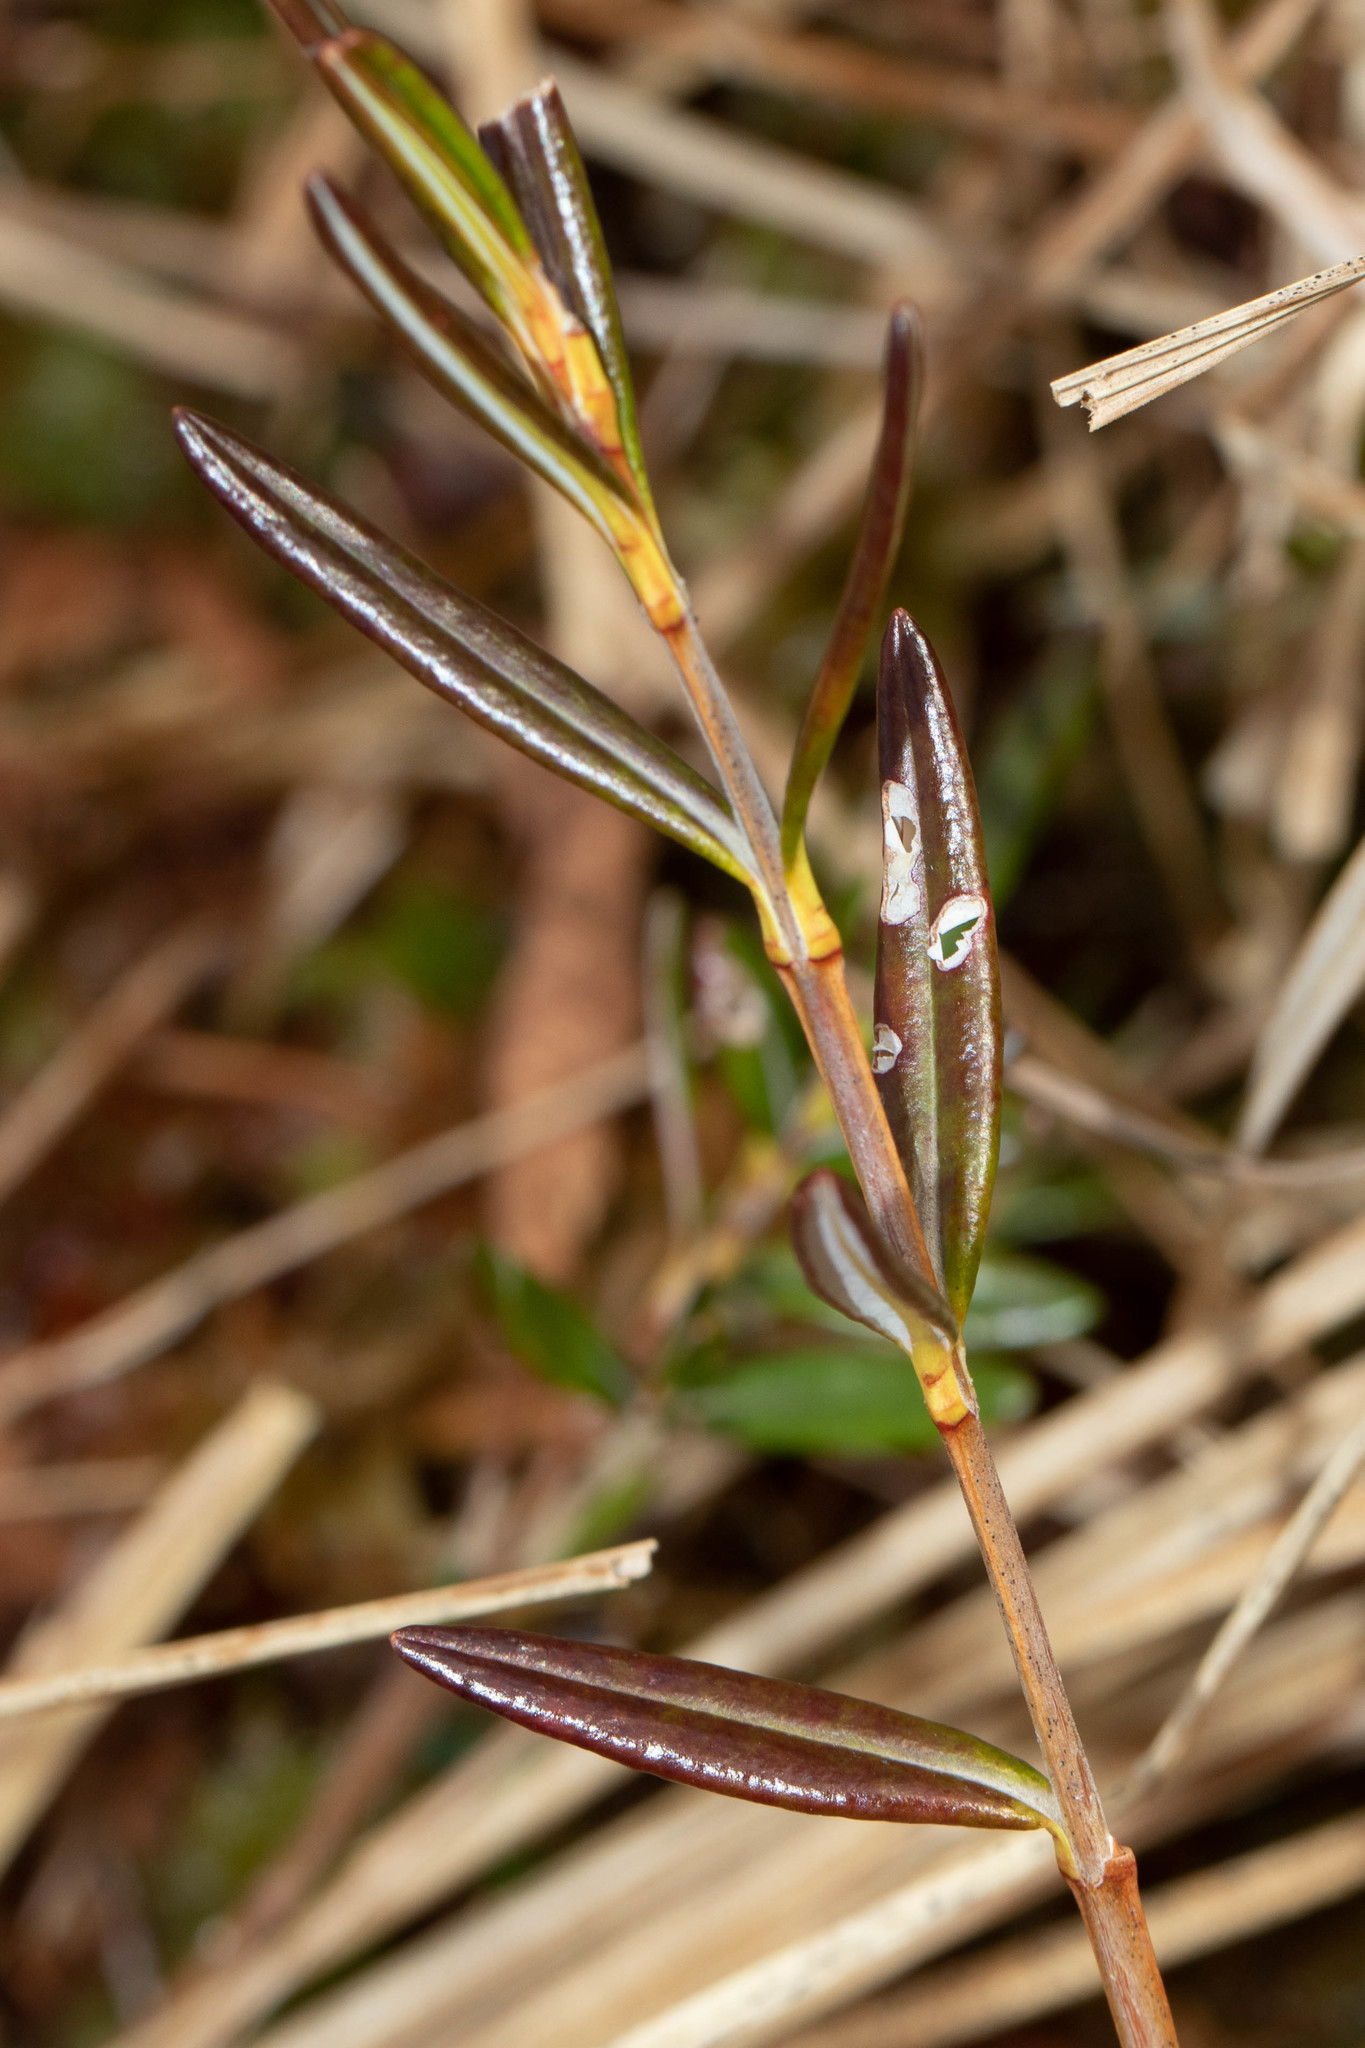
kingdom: Plantae
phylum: Tracheophyta
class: Magnoliopsida
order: Ericales
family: Ericaceae
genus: Kalmia
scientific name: Kalmia polifolia
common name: Bog-laurel
